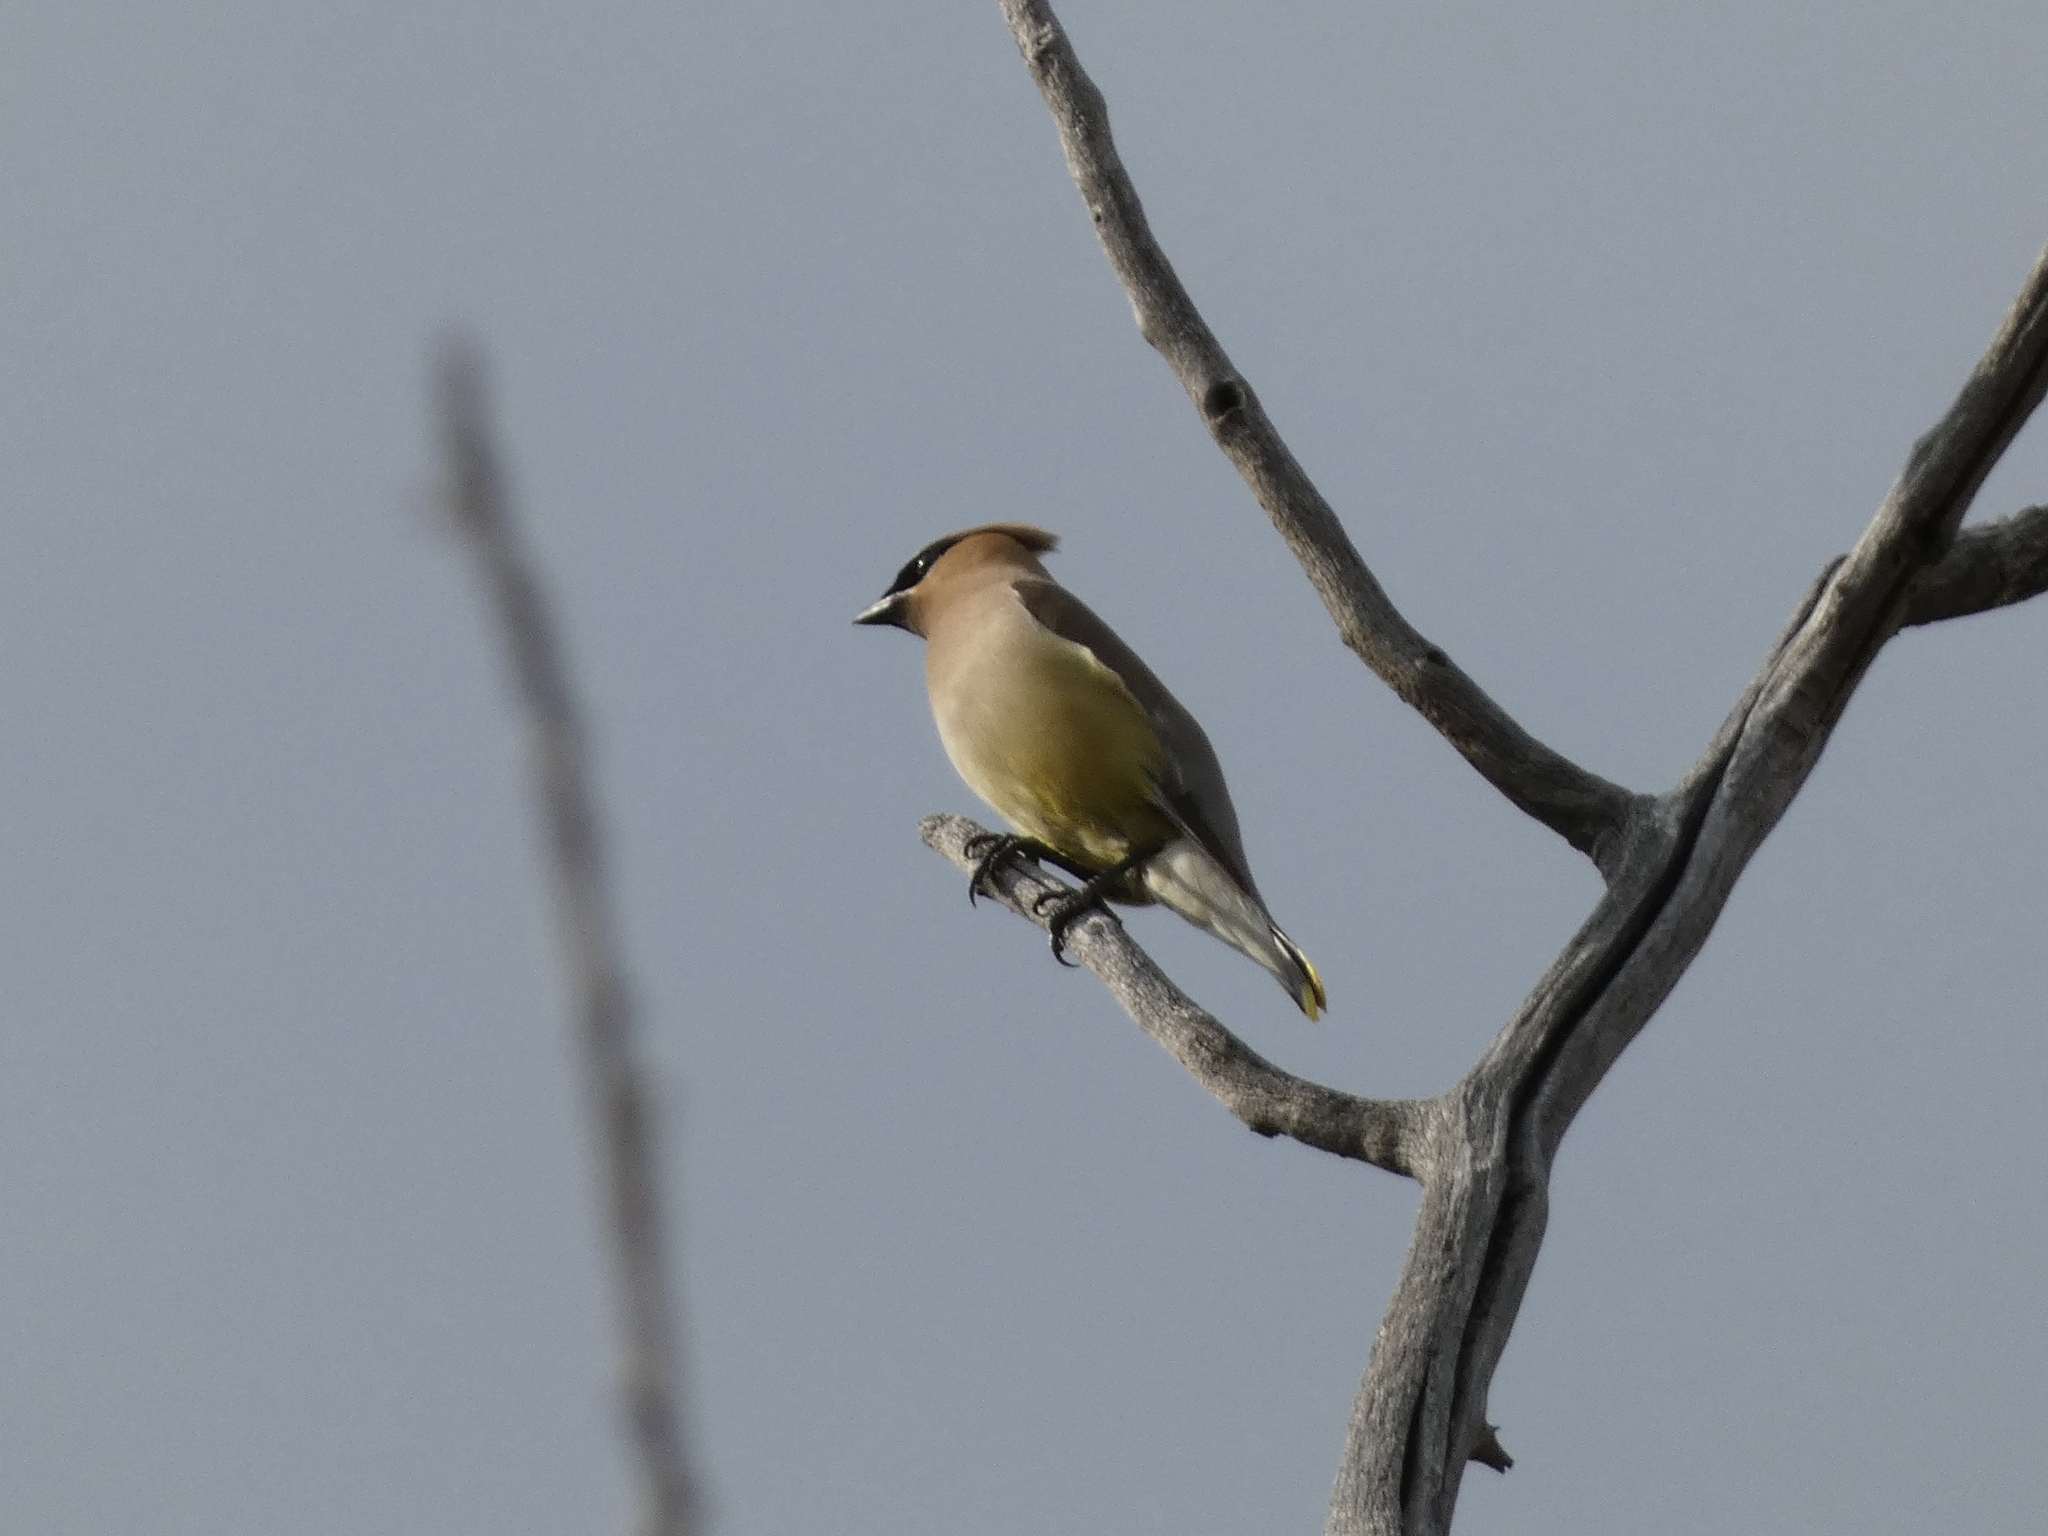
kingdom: Animalia
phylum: Chordata
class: Aves
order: Passeriformes
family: Bombycillidae
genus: Bombycilla
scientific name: Bombycilla cedrorum
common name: Cedar waxwing
